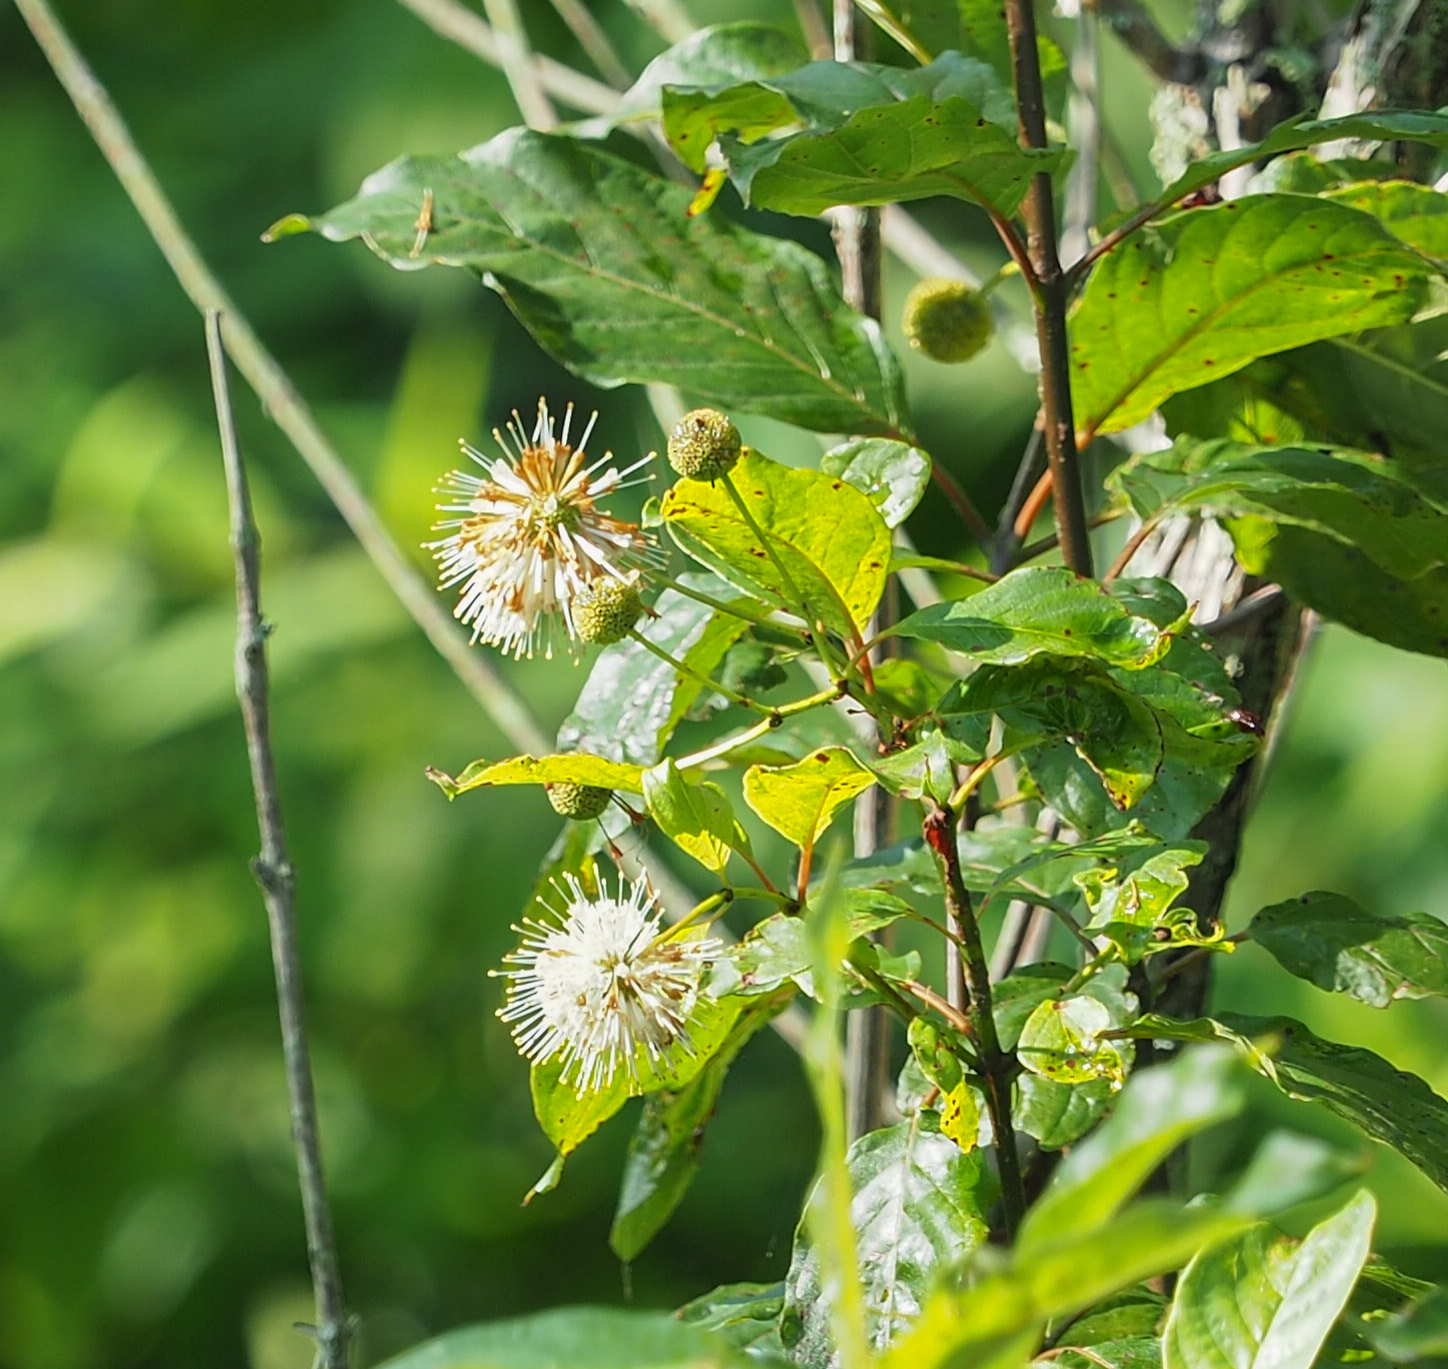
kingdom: Plantae
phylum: Tracheophyta
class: Magnoliopsida
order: Gentianales
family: Rubiaceae
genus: Cephalanthus
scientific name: Cephalanthus occidentalis
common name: Button-willow
